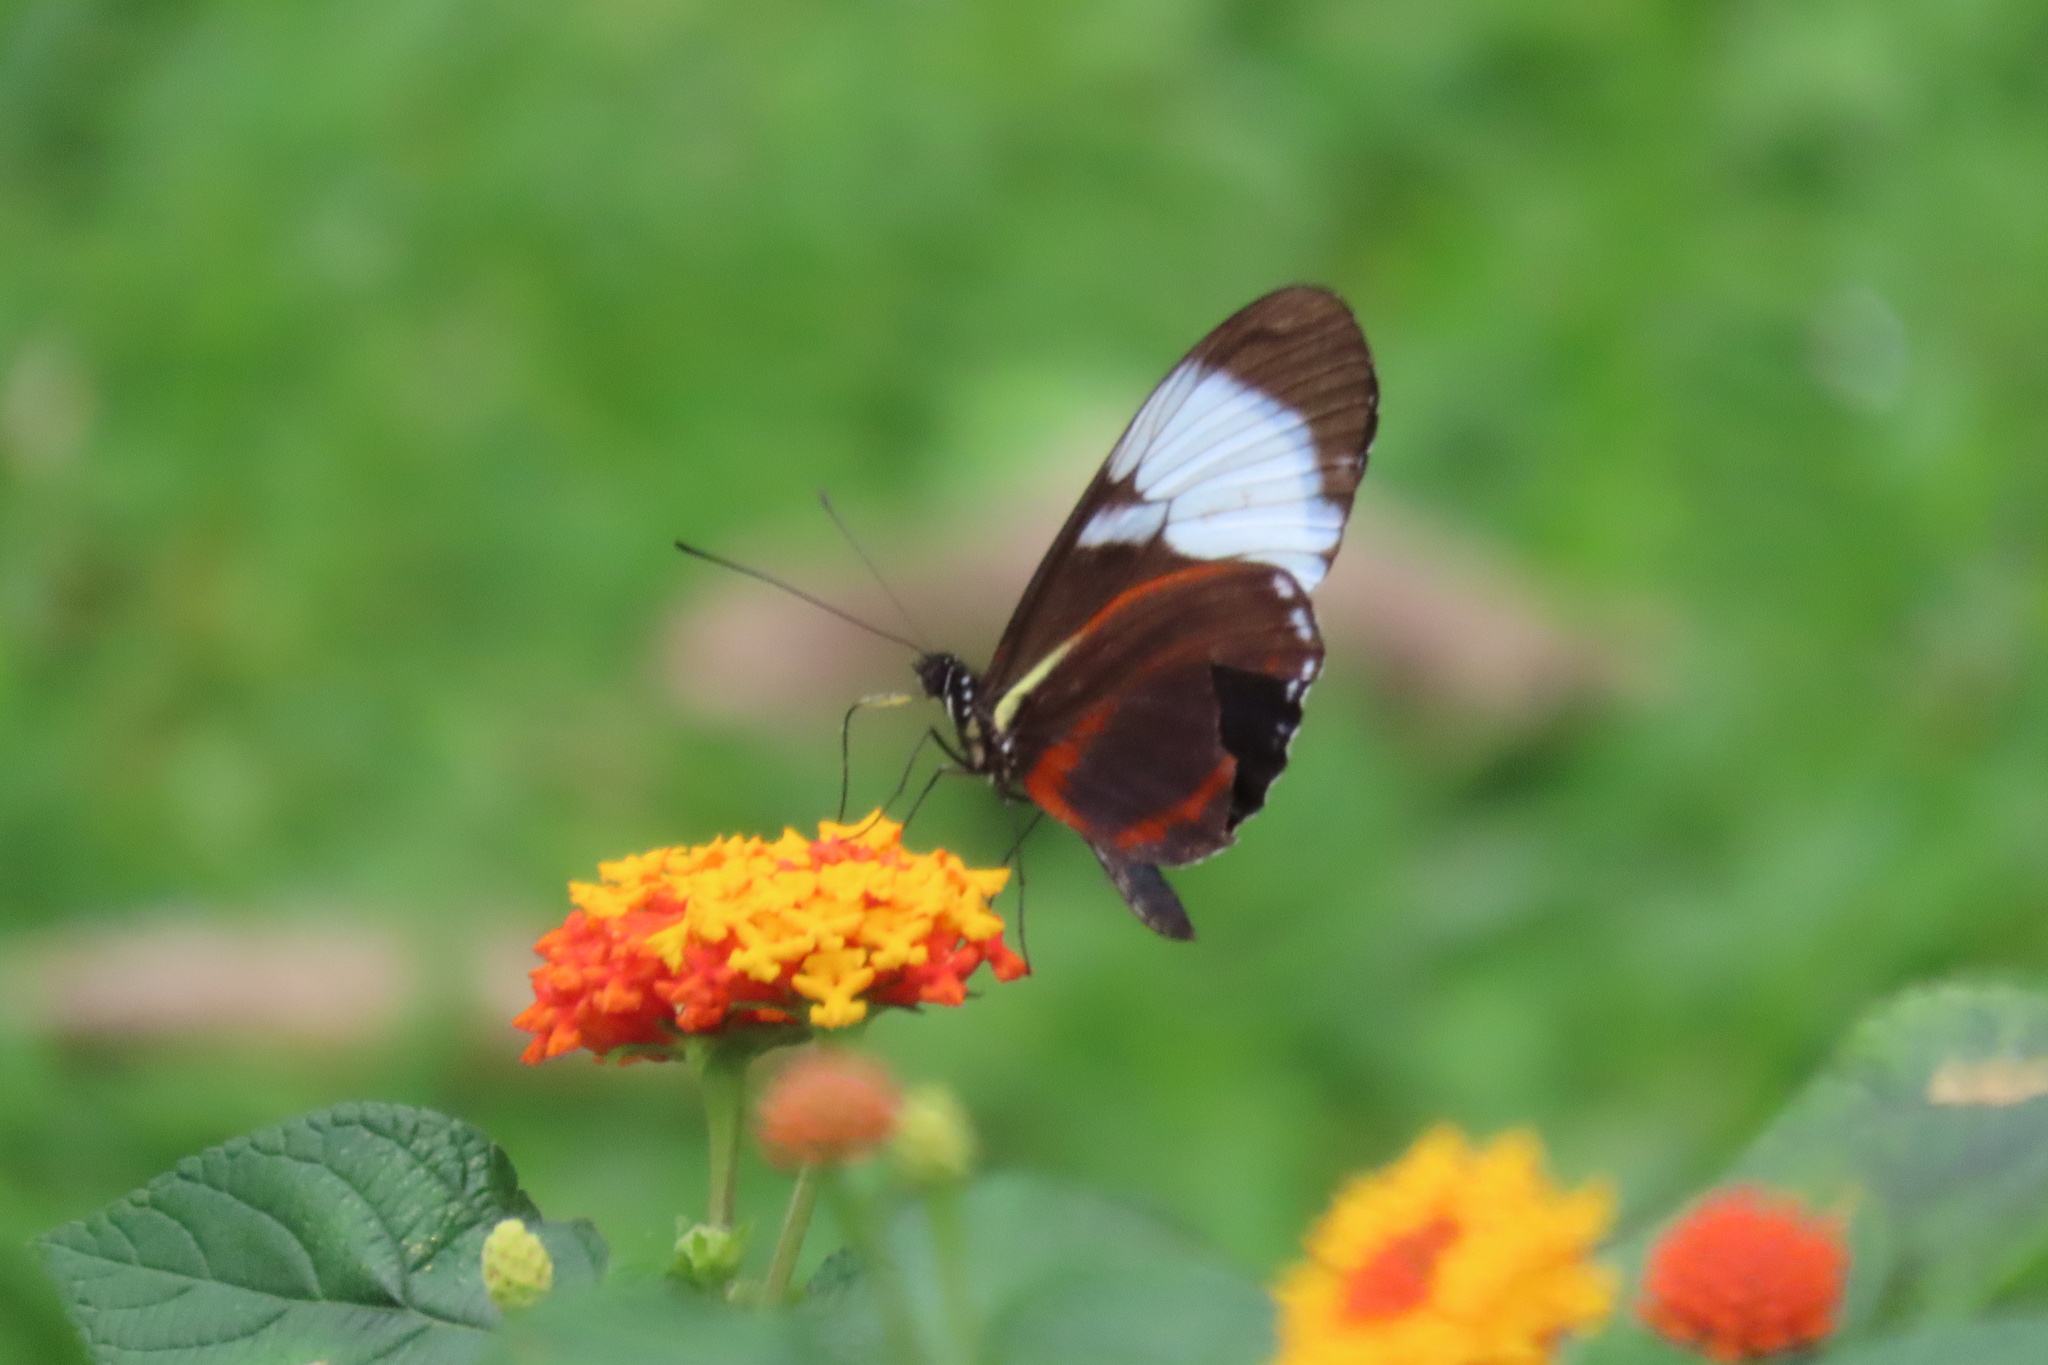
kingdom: Animalia
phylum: Arthropoda
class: Insecta
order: Lepidoptera
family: Nymphalidae
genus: Heliconius
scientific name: Heliconius cydno
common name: Cydno longwing
